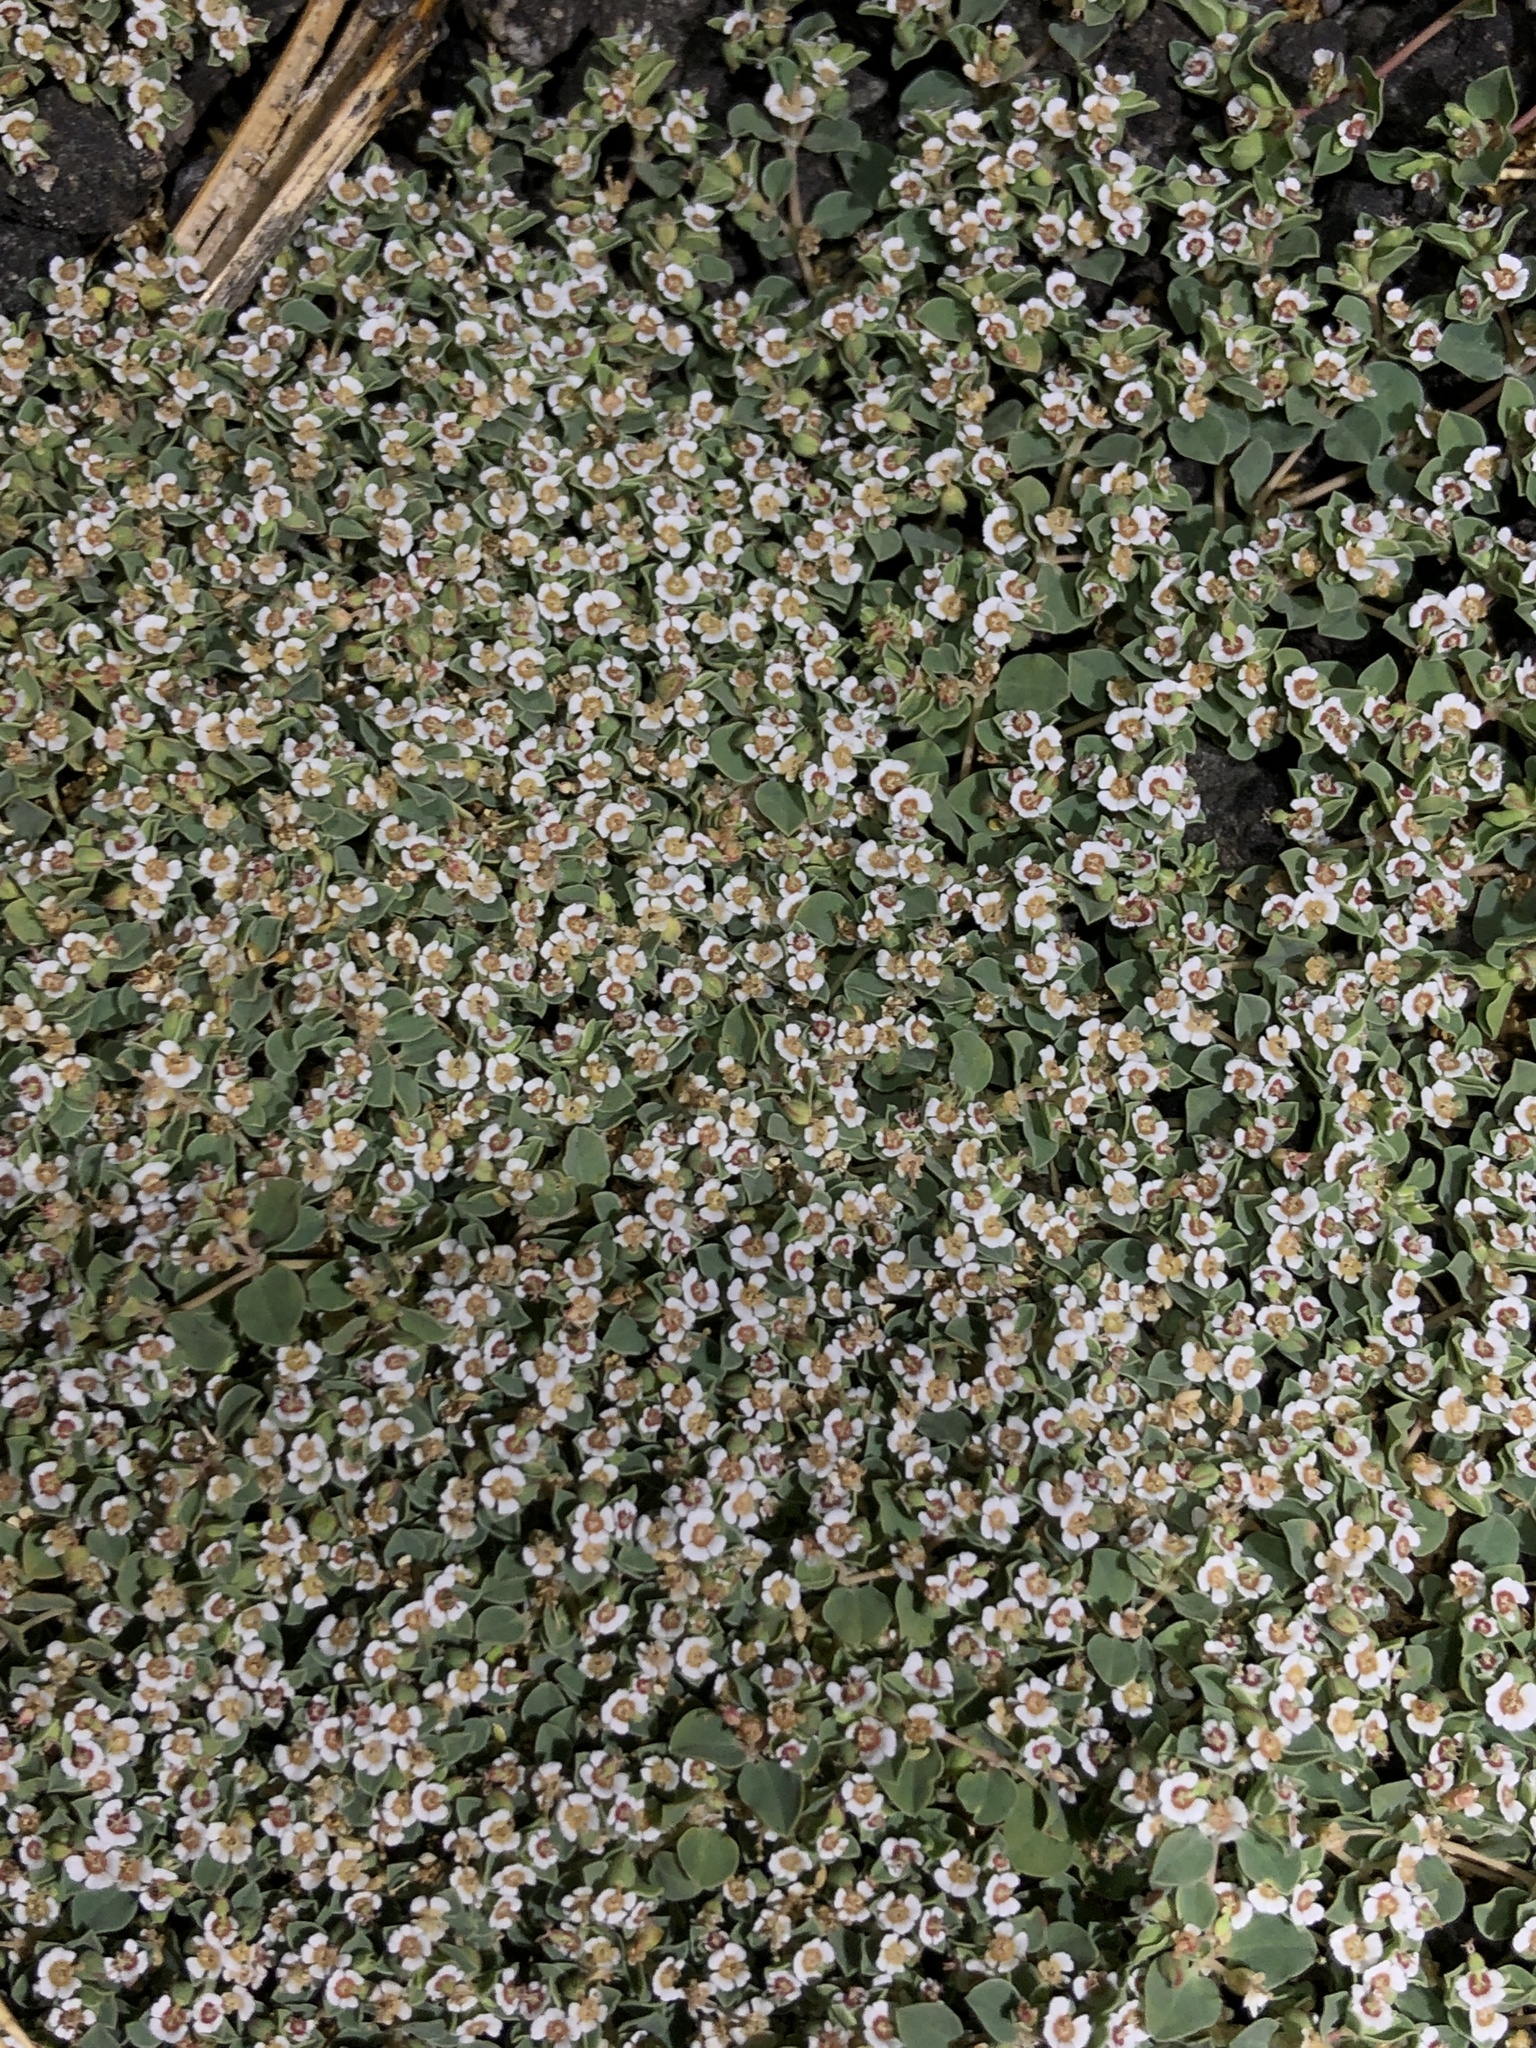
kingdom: Plantae
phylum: Tracheophyta
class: Magnoliopsida
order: Malpighiales
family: Euphorbiaceae
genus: Euphorbia
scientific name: Euphorbia albomarginata
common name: Whitemargin sandmat
